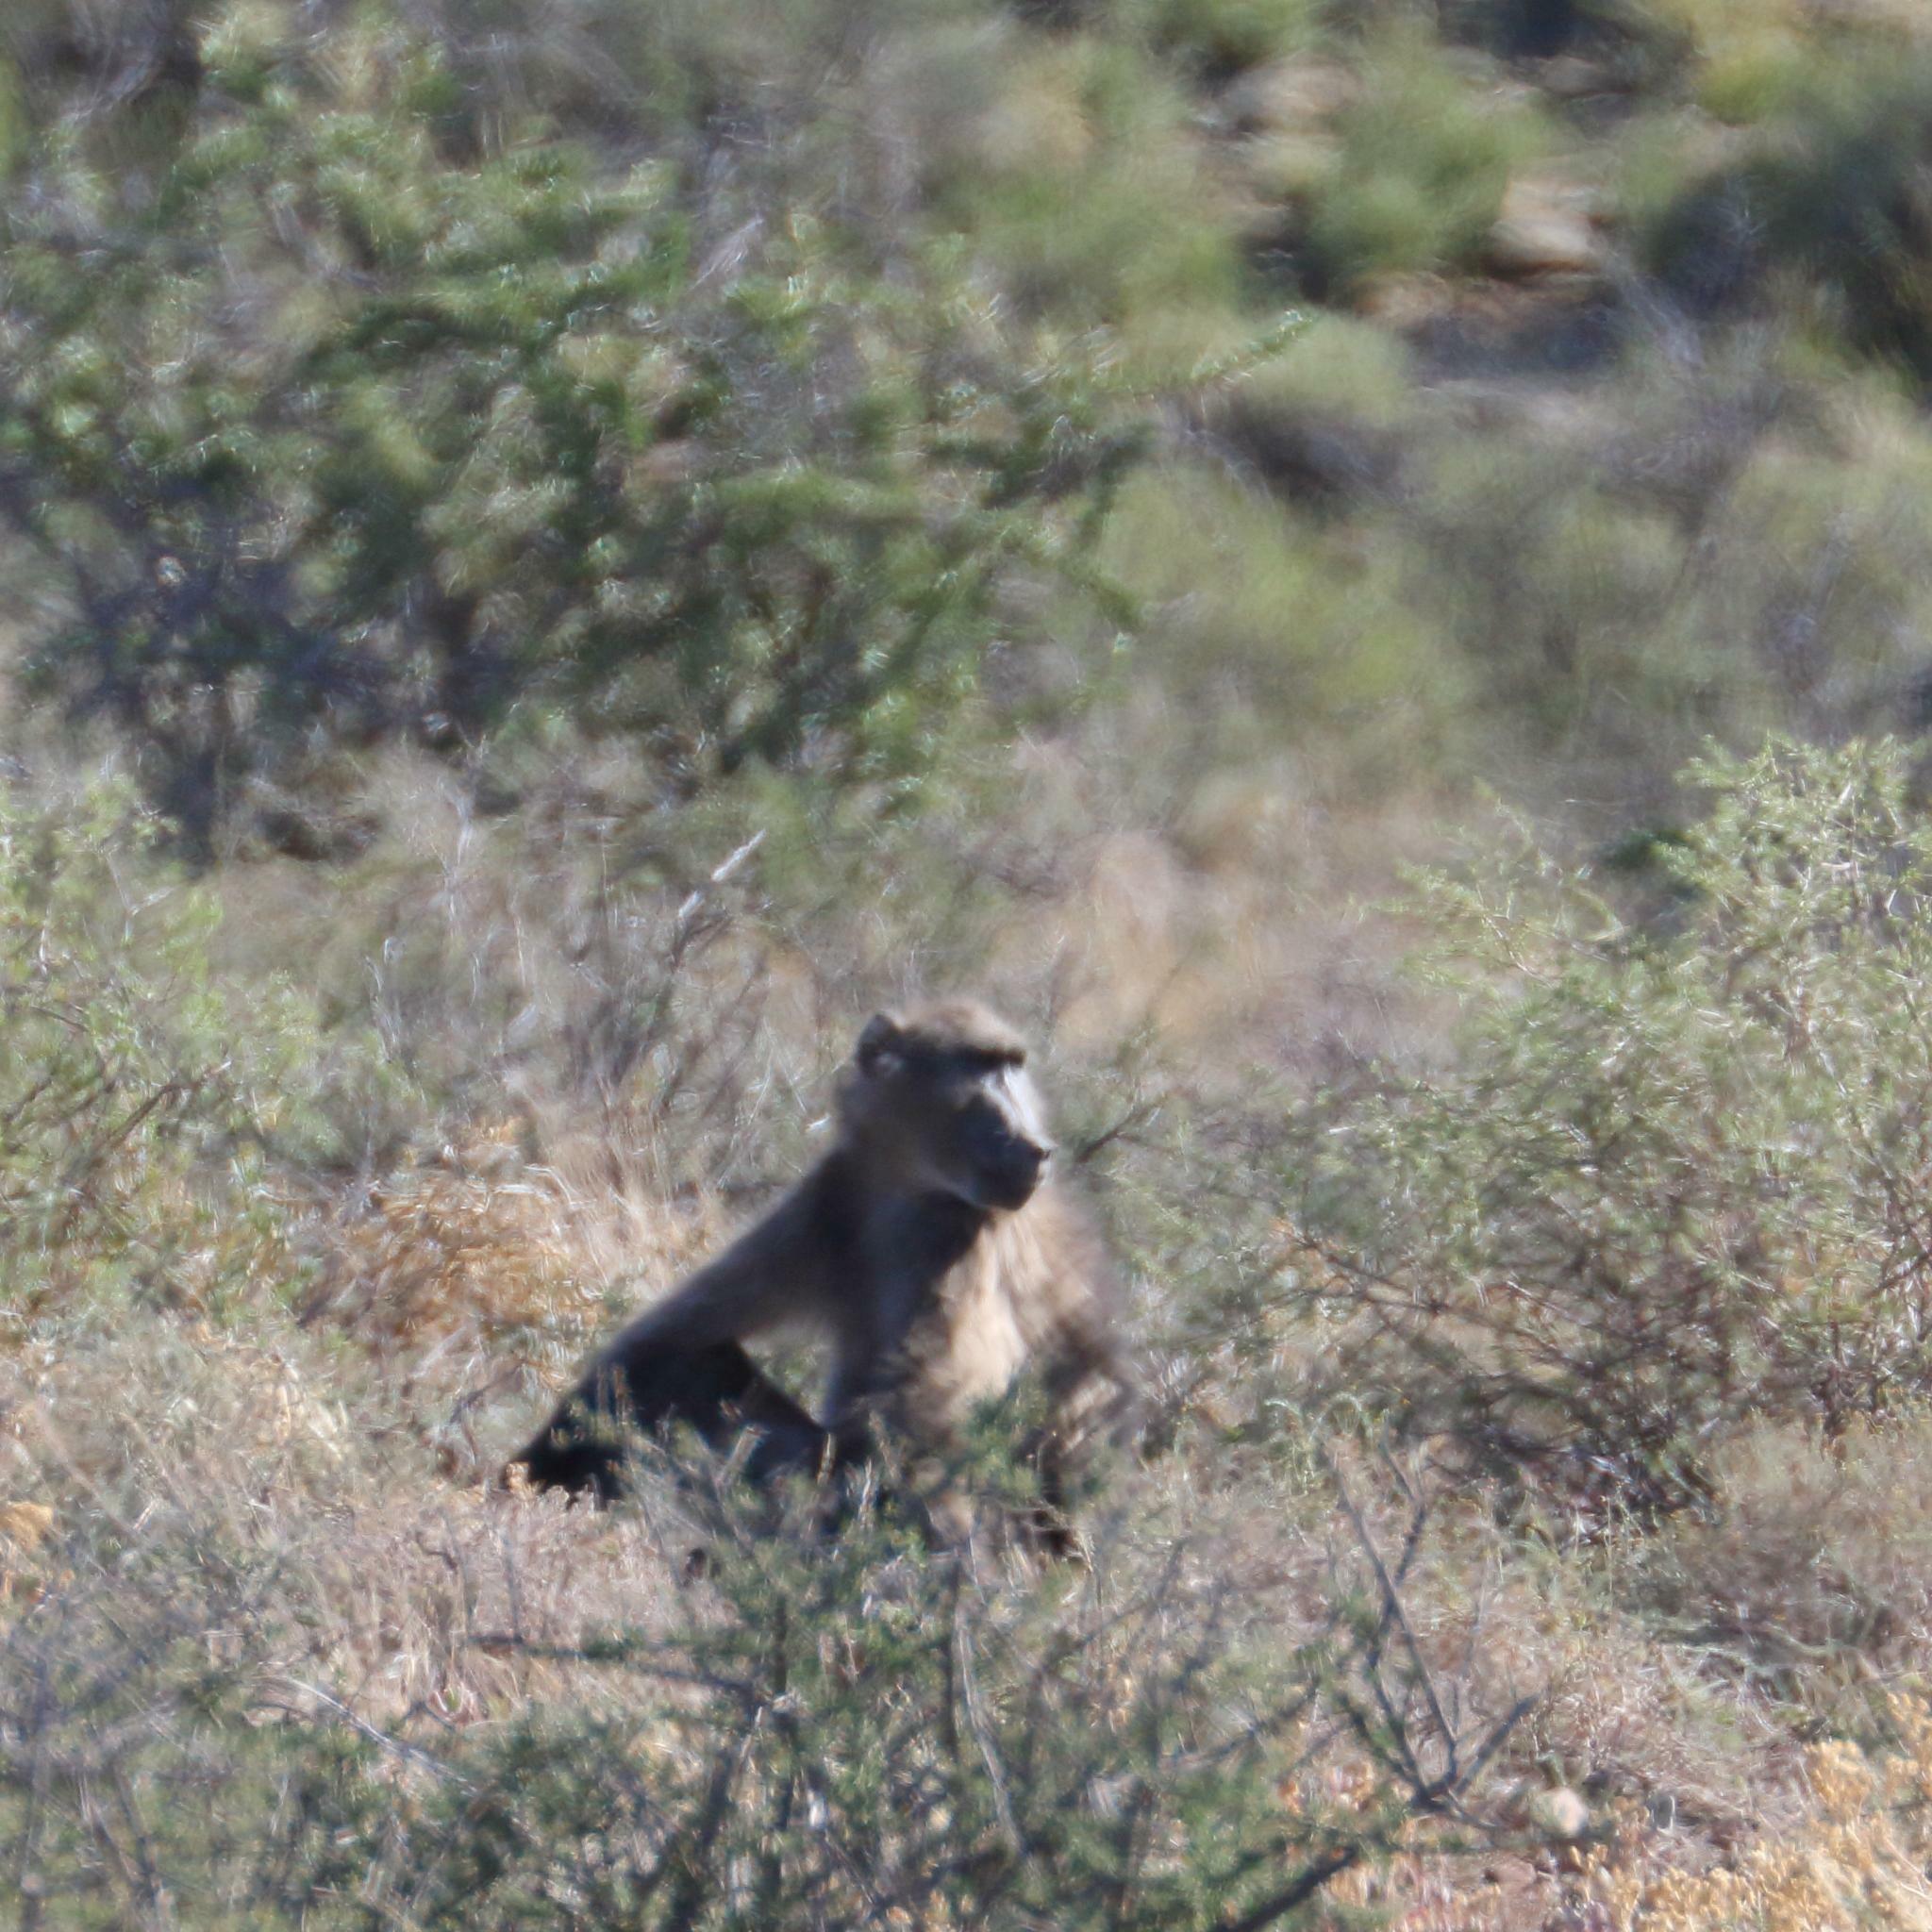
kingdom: Animalia
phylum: Chordata
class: Mammalia
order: Primates
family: Cercopithecidae
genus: Papio
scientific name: Papio ursinus
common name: Chacma baboon
